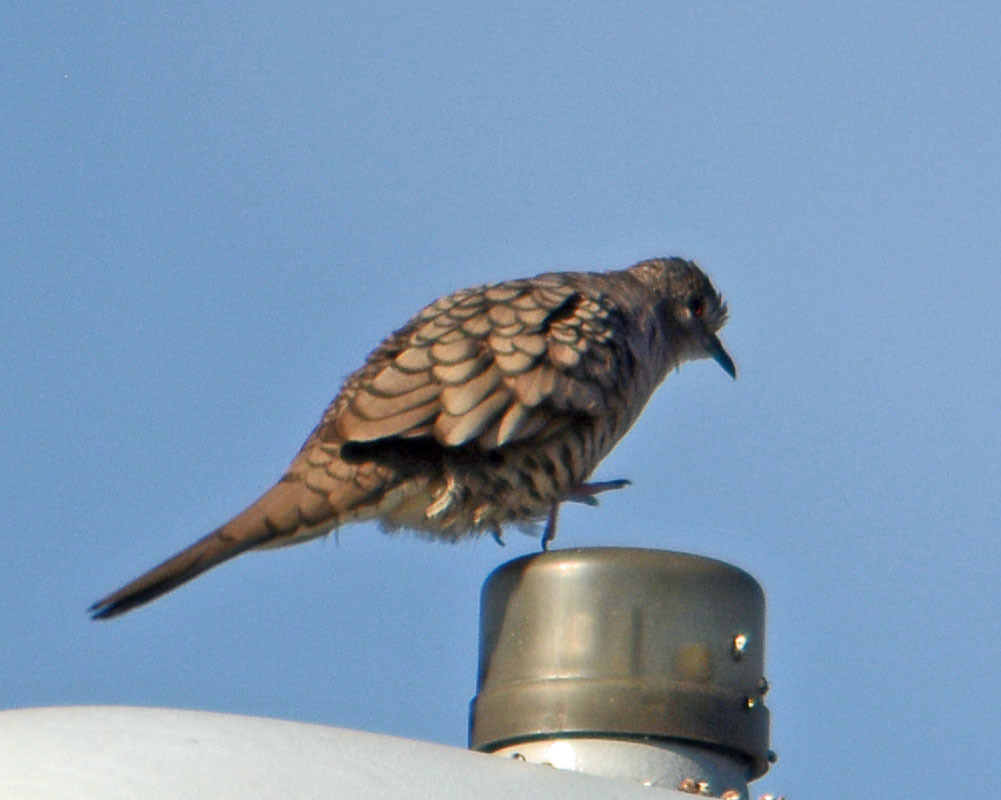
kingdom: Animalia
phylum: Chordata
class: Aves
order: Columbiformes
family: Columbidae
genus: Columbina
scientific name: Columbina inca
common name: Inca dove
